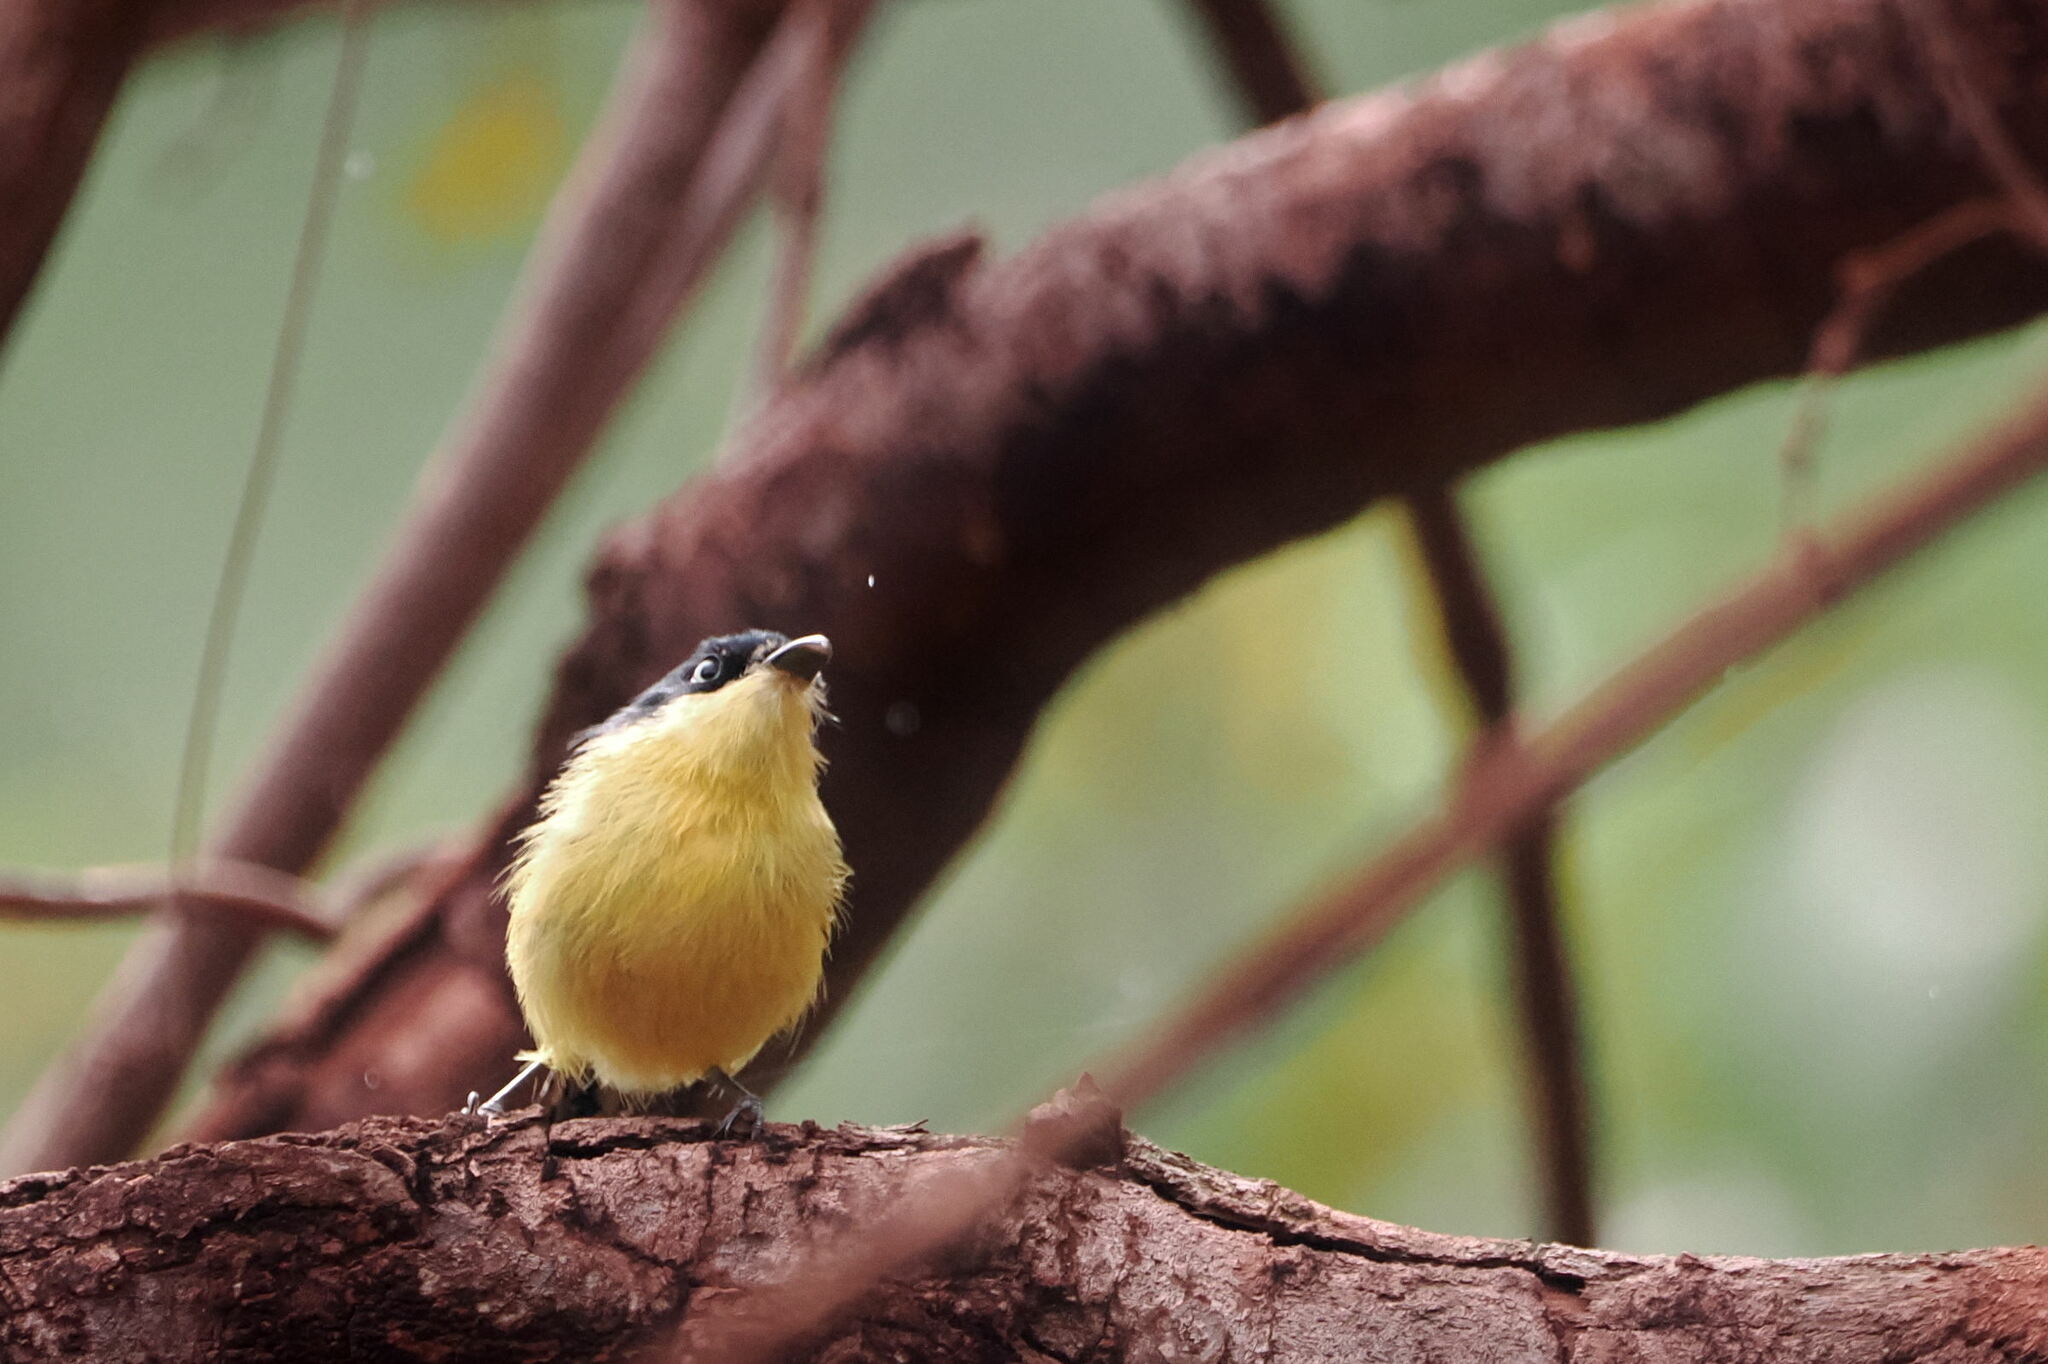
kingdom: Animalia
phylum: Chordata
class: Aves
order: Passeriformes
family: Tyrannidae
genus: Todirostrum
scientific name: Todirostrum cinereum
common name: Common tody-flycatcher
